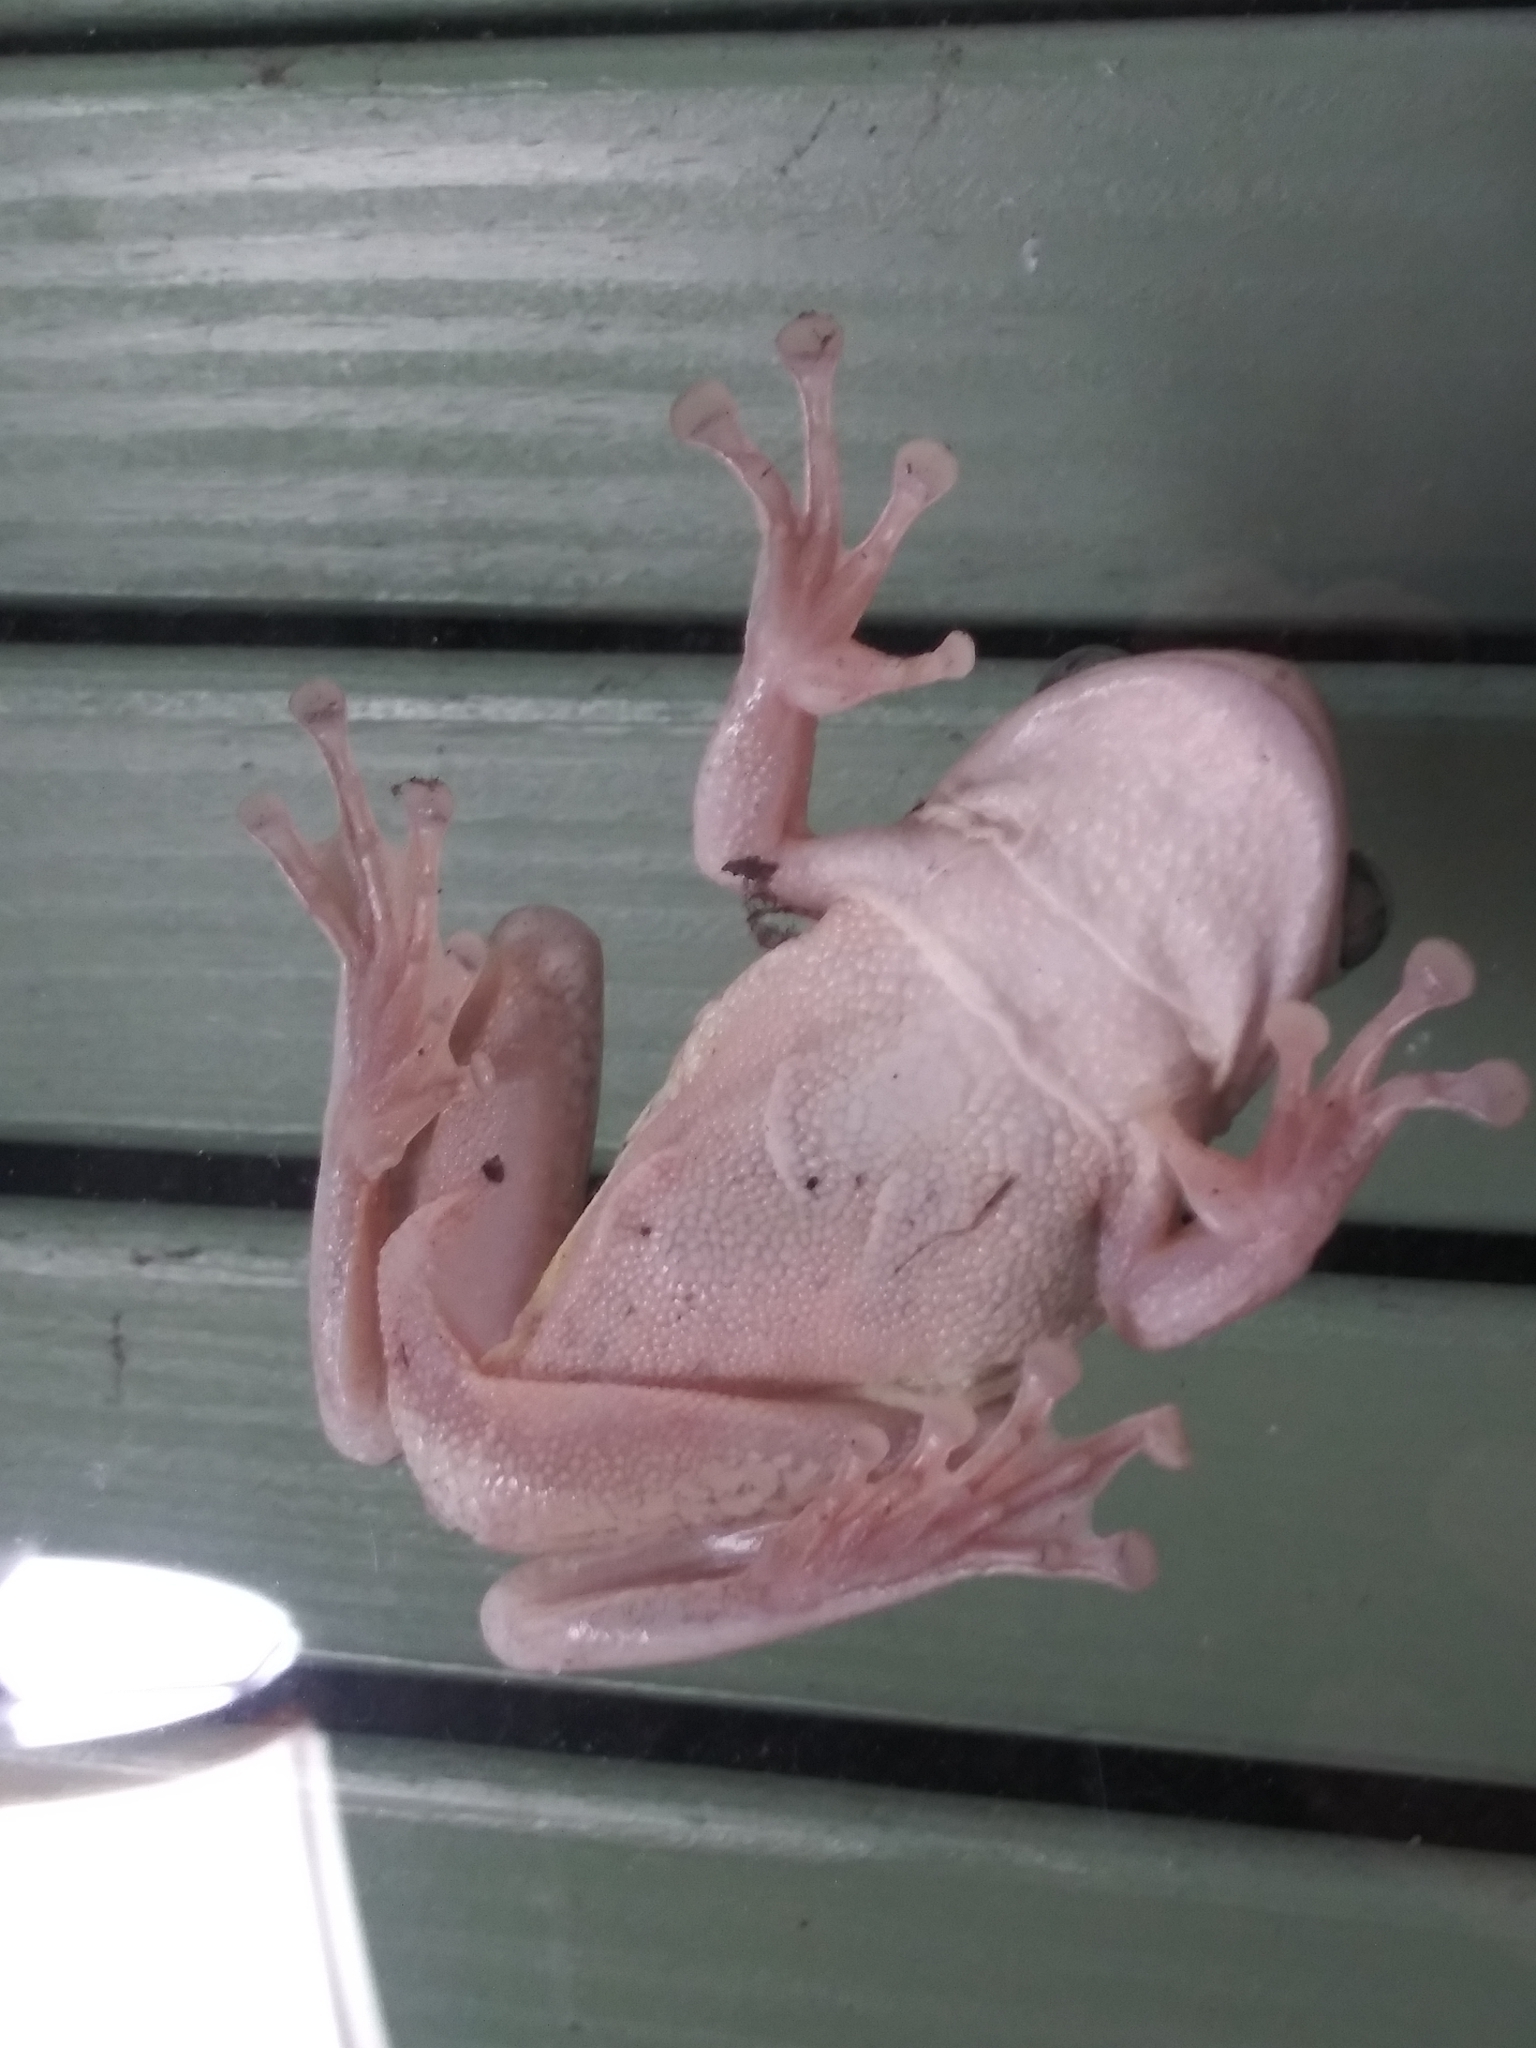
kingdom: Animalia
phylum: Chordata
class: Amphibia
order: Anura
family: Hylidae
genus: Osteopilus
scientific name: Osteopilus septentrionalis
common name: Cuban treefrog
